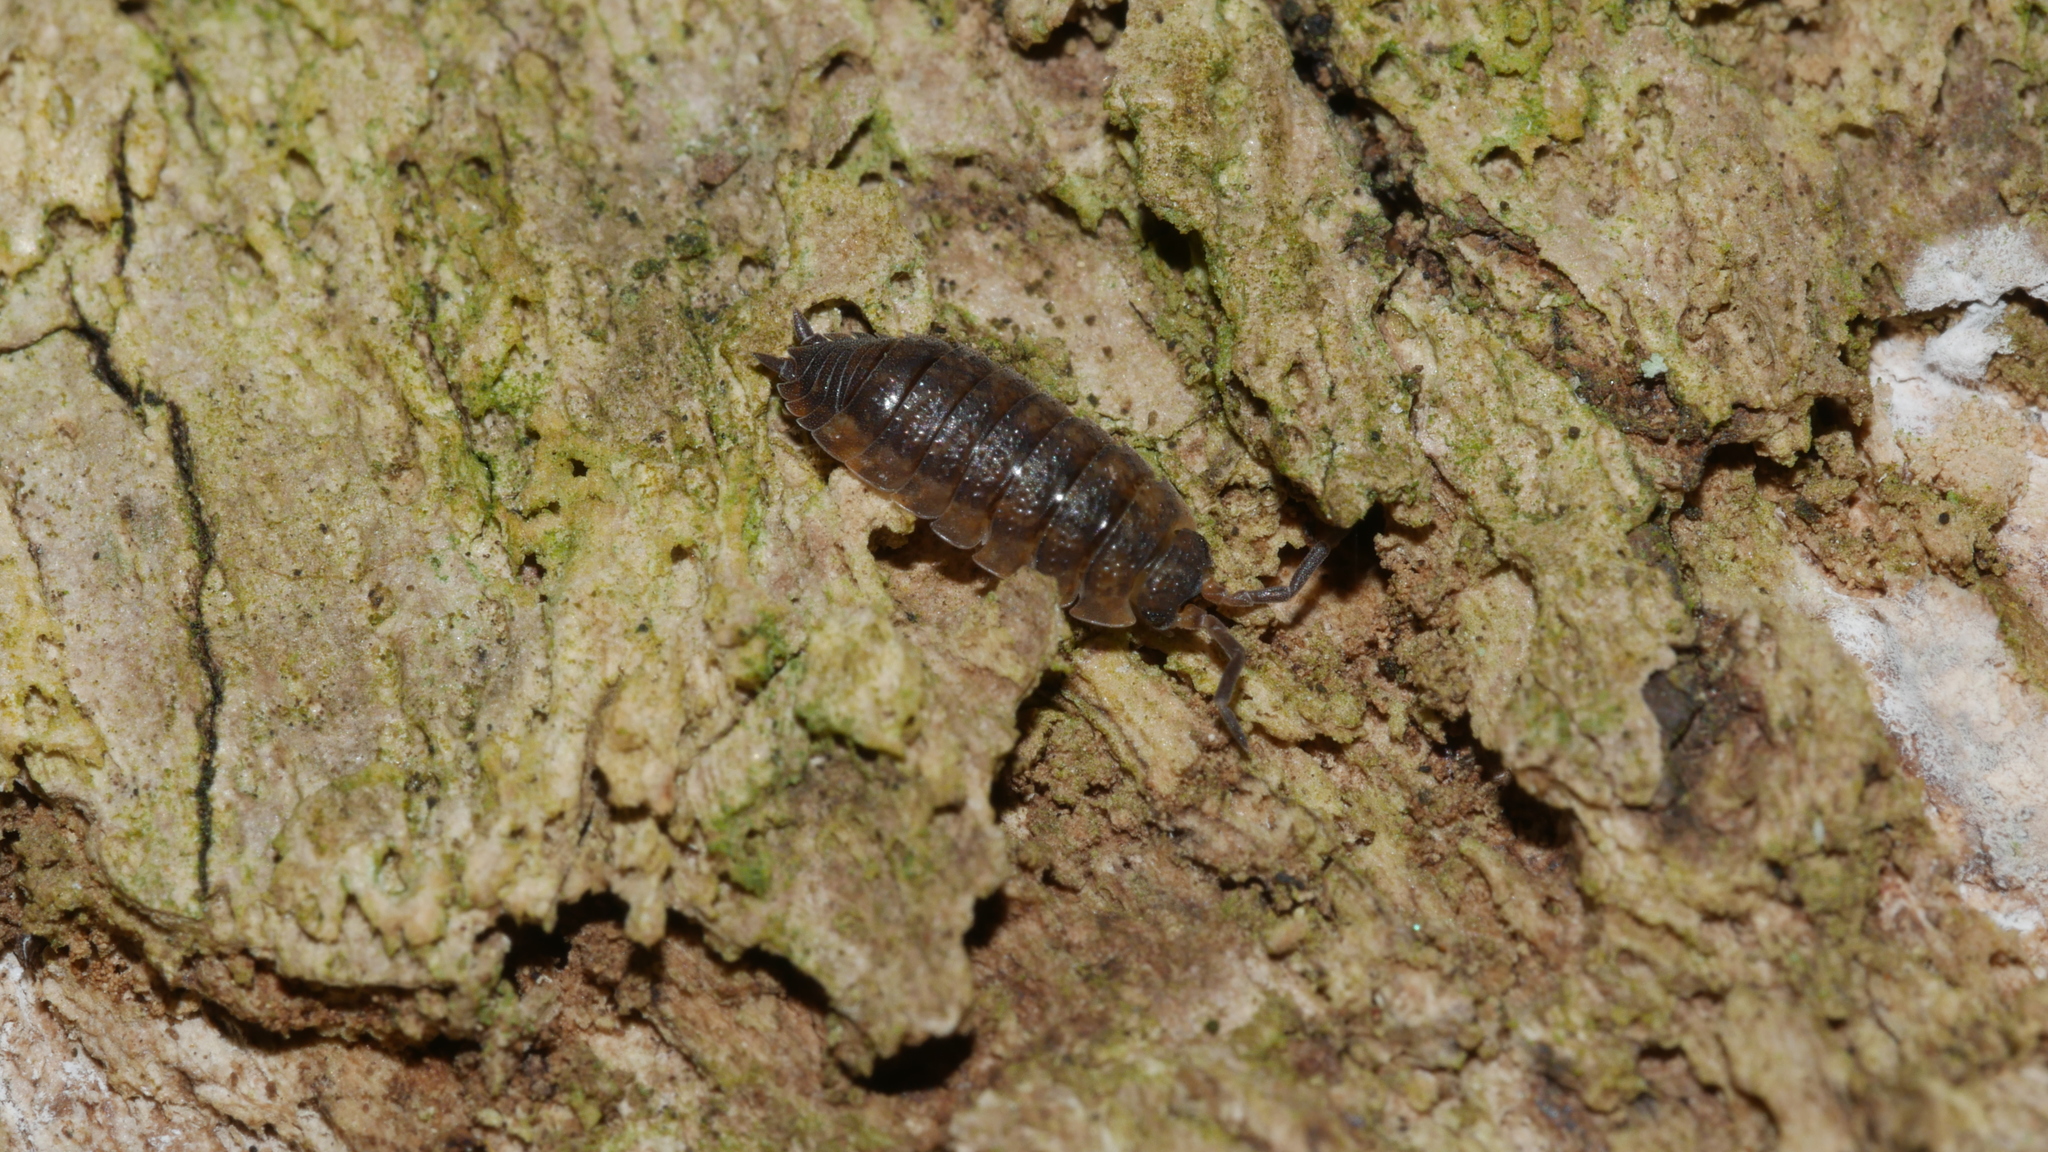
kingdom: Animalia
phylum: Arthropoda
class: Malacostraca
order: Isopoda
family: Porcellionidae
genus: Porcellio
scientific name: Porcellio scaber
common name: Common rough woodlouse
